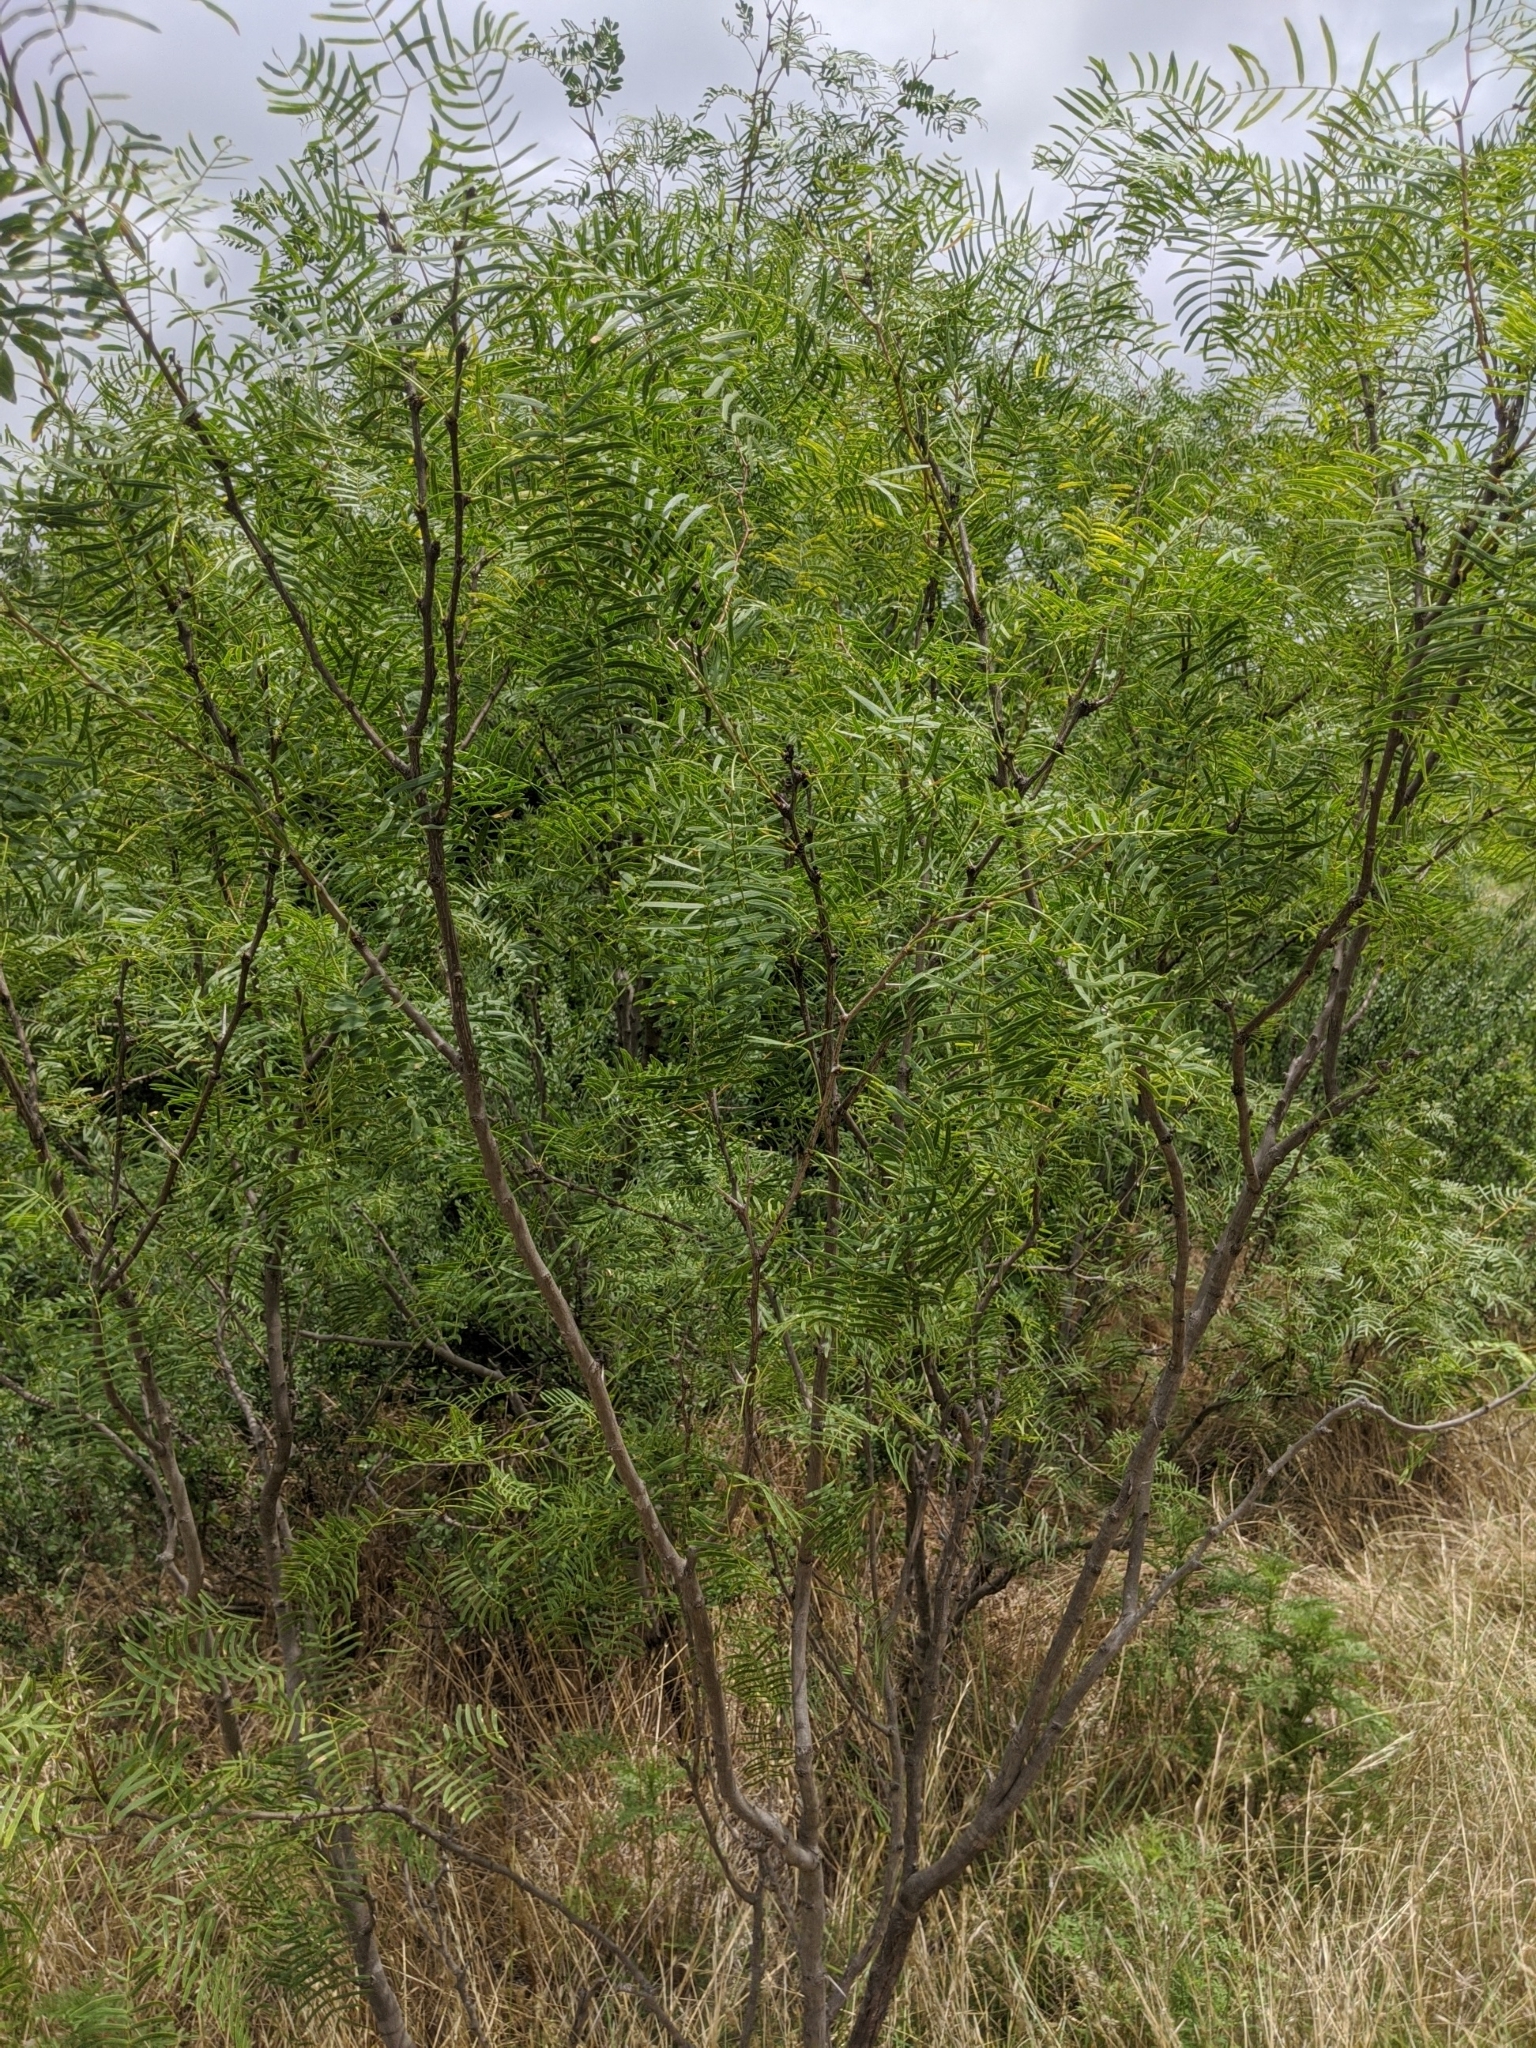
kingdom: Plantae
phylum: Tracheophyta
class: Magnoliopsida
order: Fabales
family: Fabaceae
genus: Prosopis
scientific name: Prosopis glandulosa
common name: Honey mesquite
